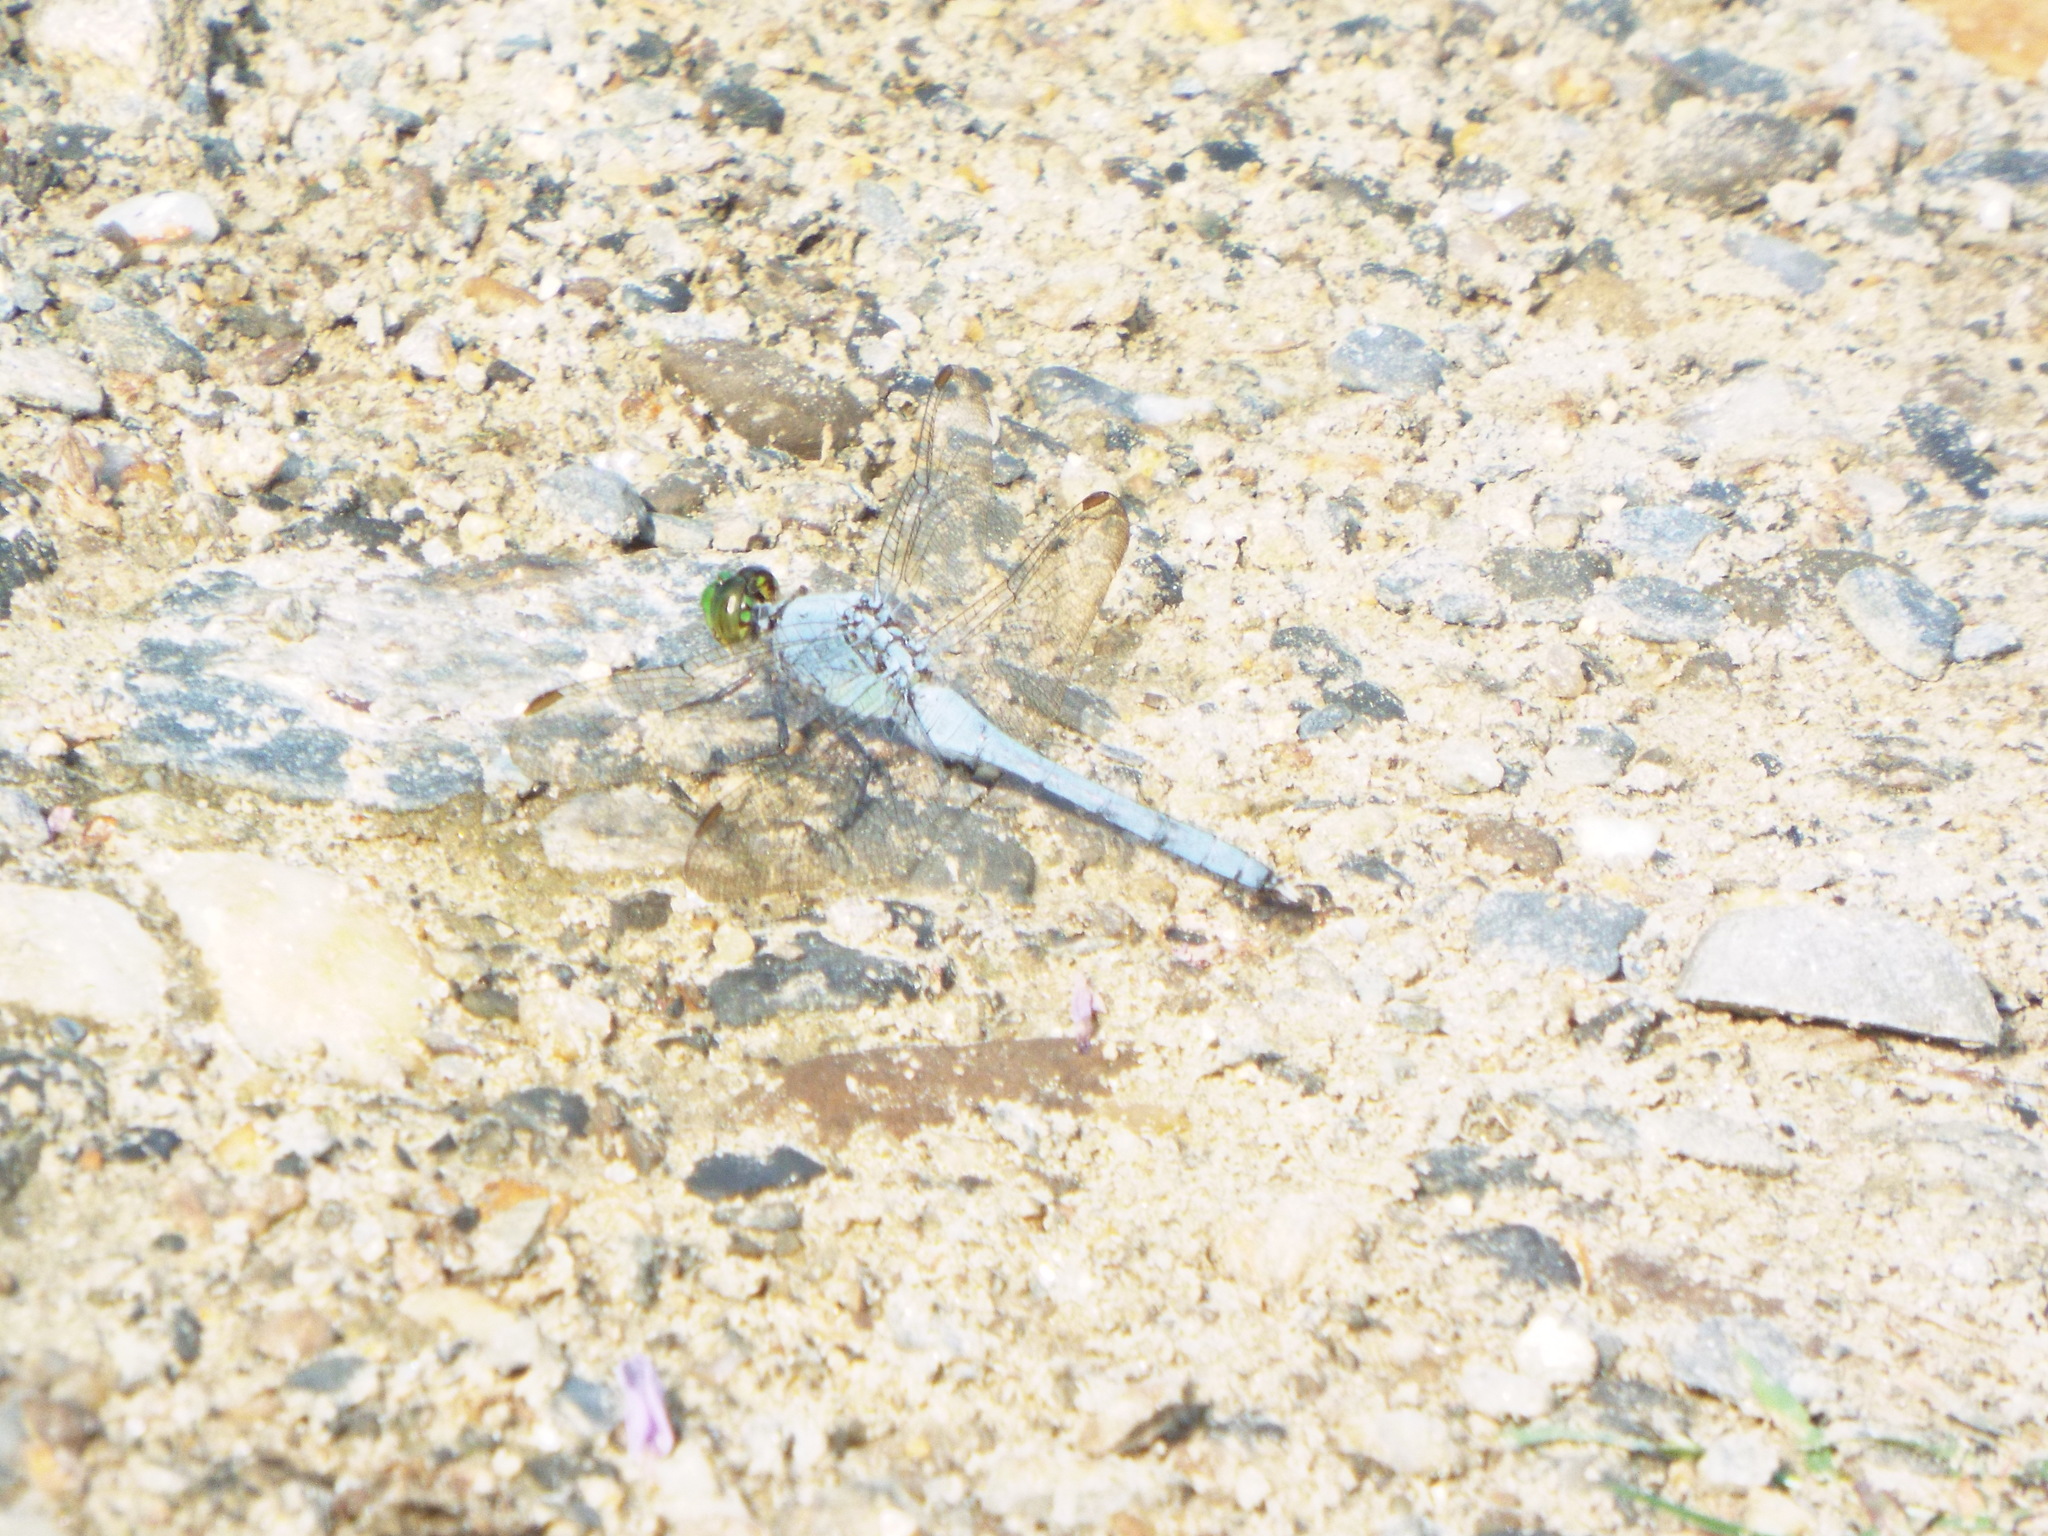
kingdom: Animalia
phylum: Arthropoda
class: Insecta
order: Odonata
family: Libellulidae
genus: Erythemis
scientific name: Erythemis simplicicollis
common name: Eastern pondhawk
